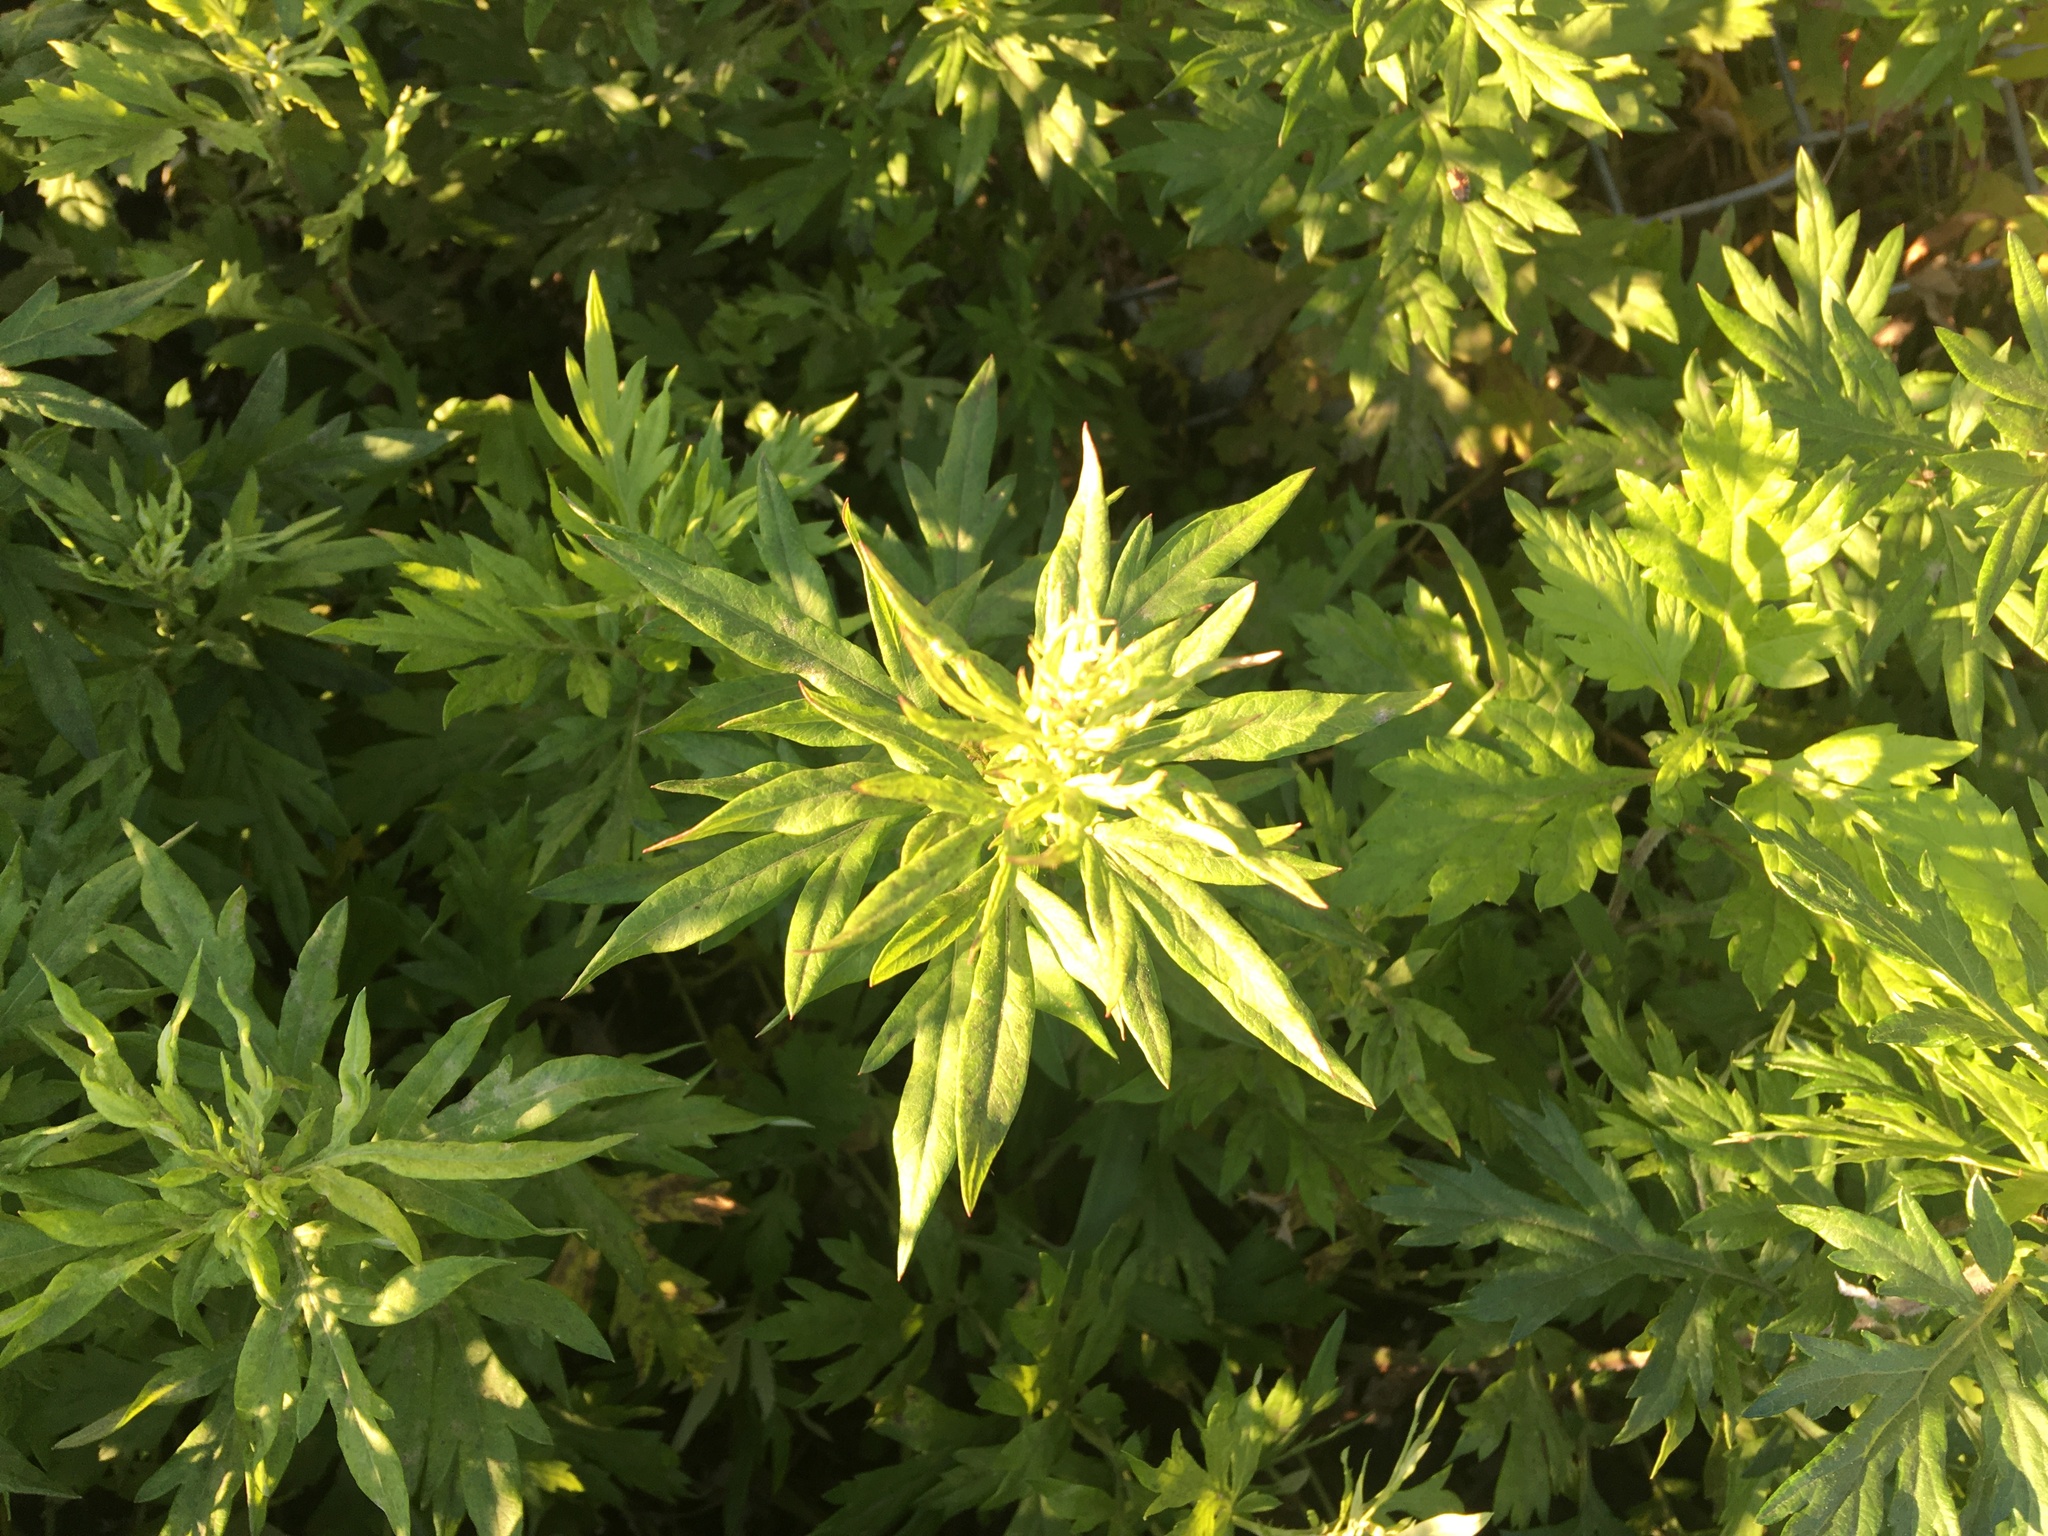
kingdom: Plantae
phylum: Tracheophyta
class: Magnoliopsida
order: Asterales
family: Asteraceae
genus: Artemisia
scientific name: Artemisia vulgaris
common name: Mugwort
